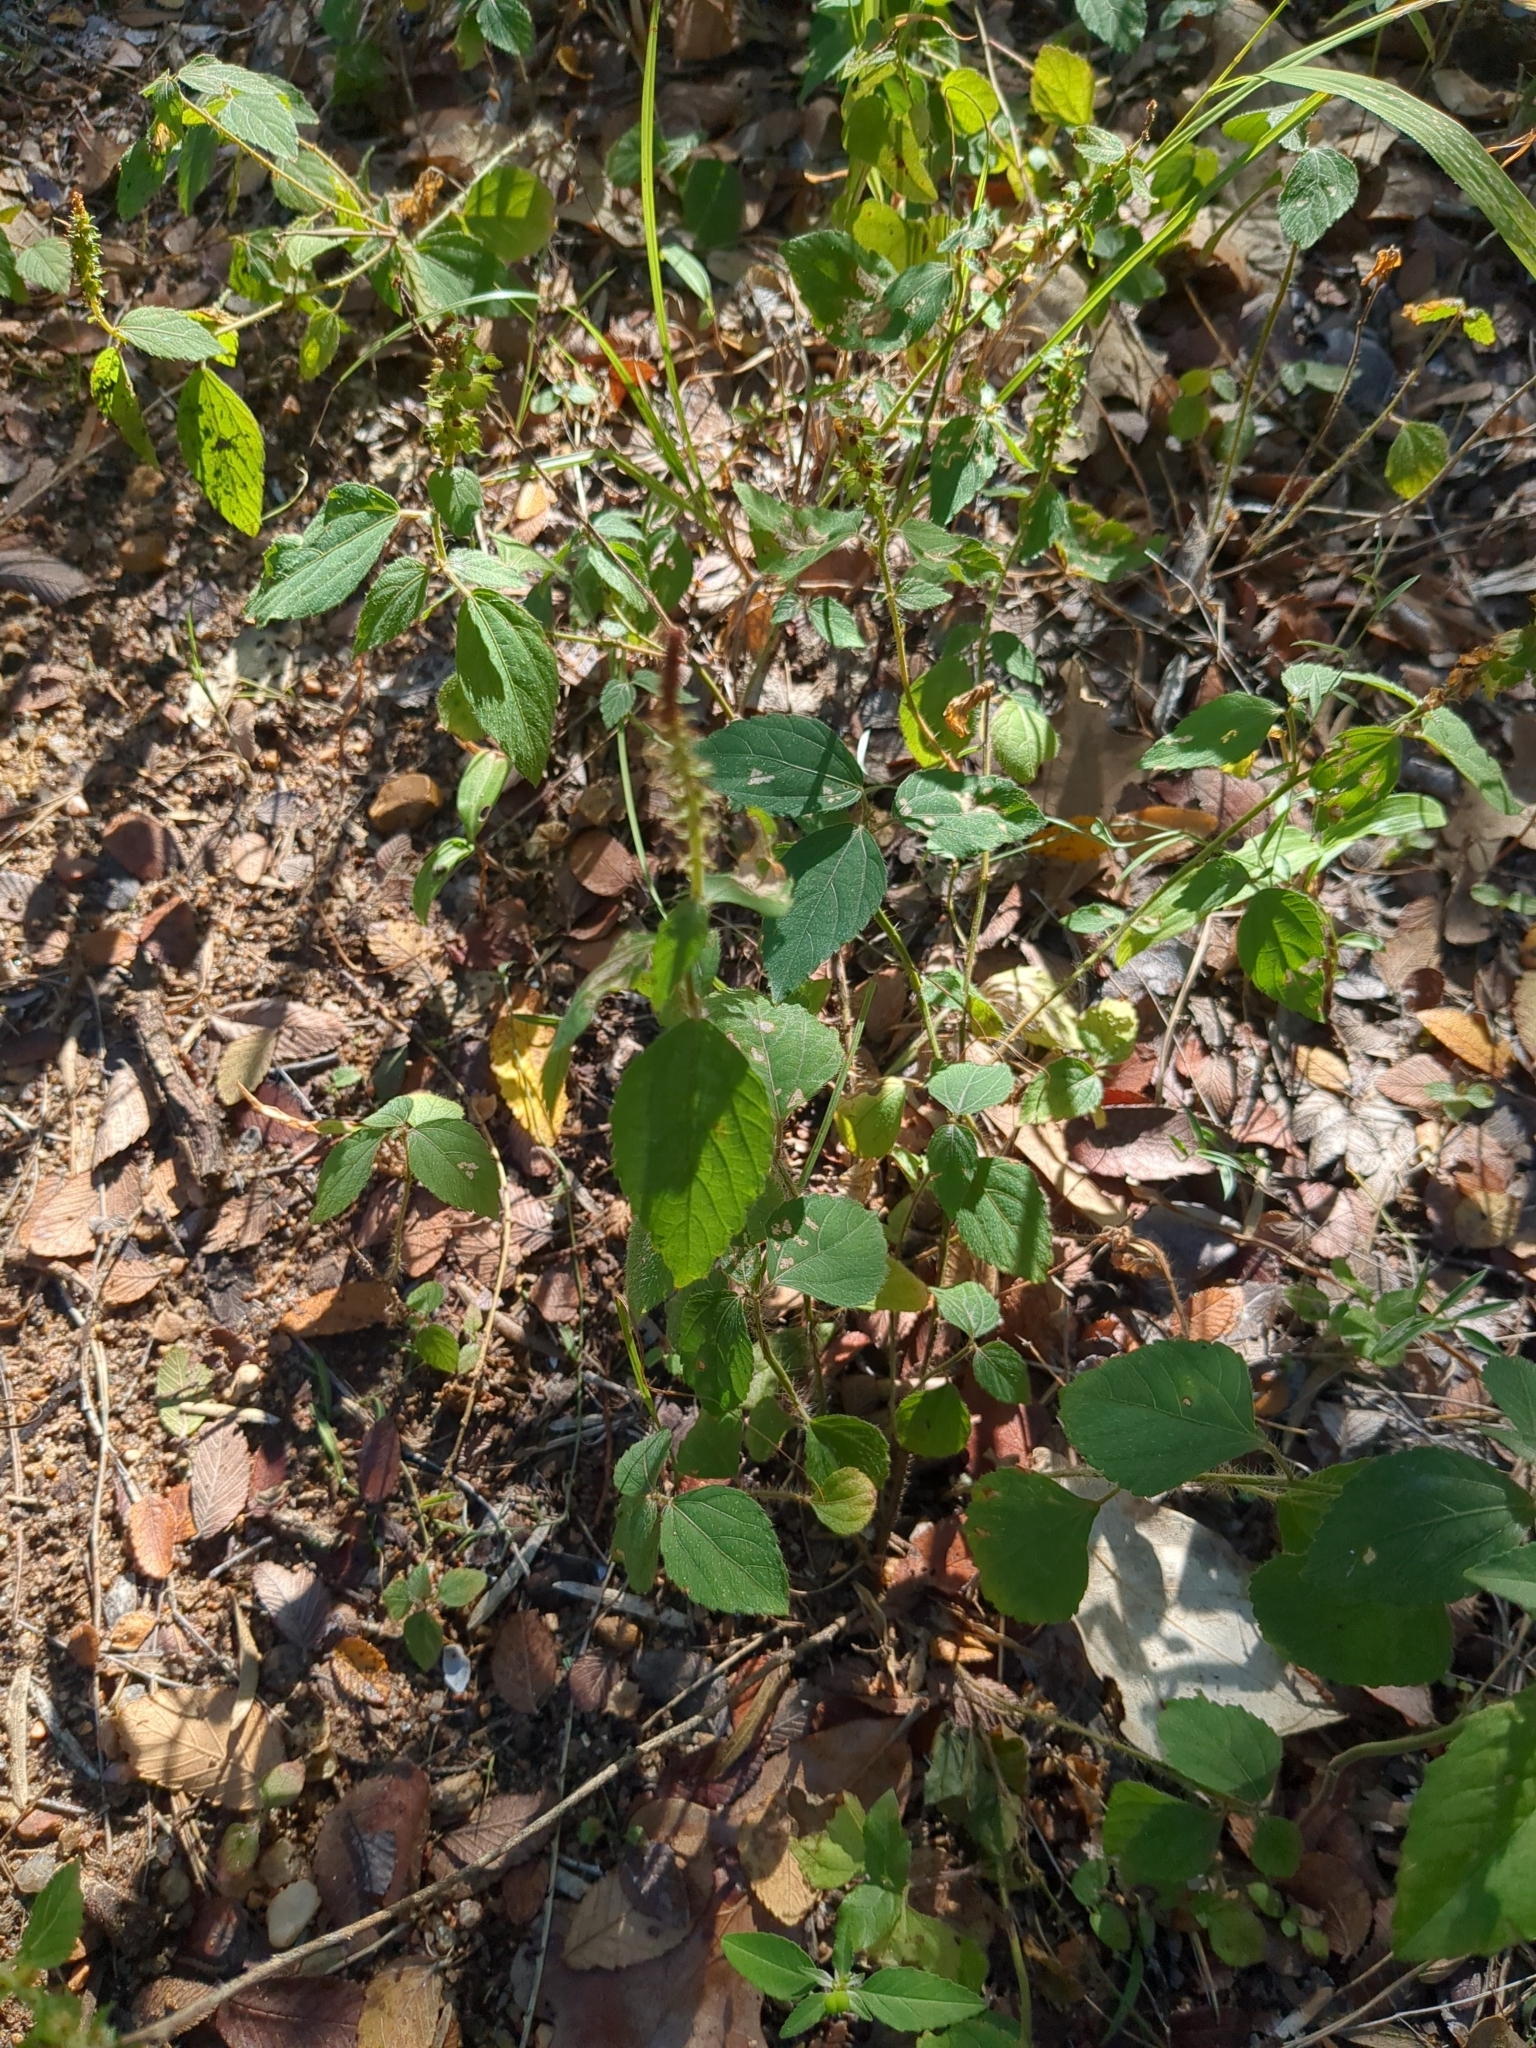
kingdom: Plantae
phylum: Tracheophyta
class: Magnoliopsida
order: Malpighiales
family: Euphorbiaceae
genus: Acalypha
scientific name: Acalypha phleoides
